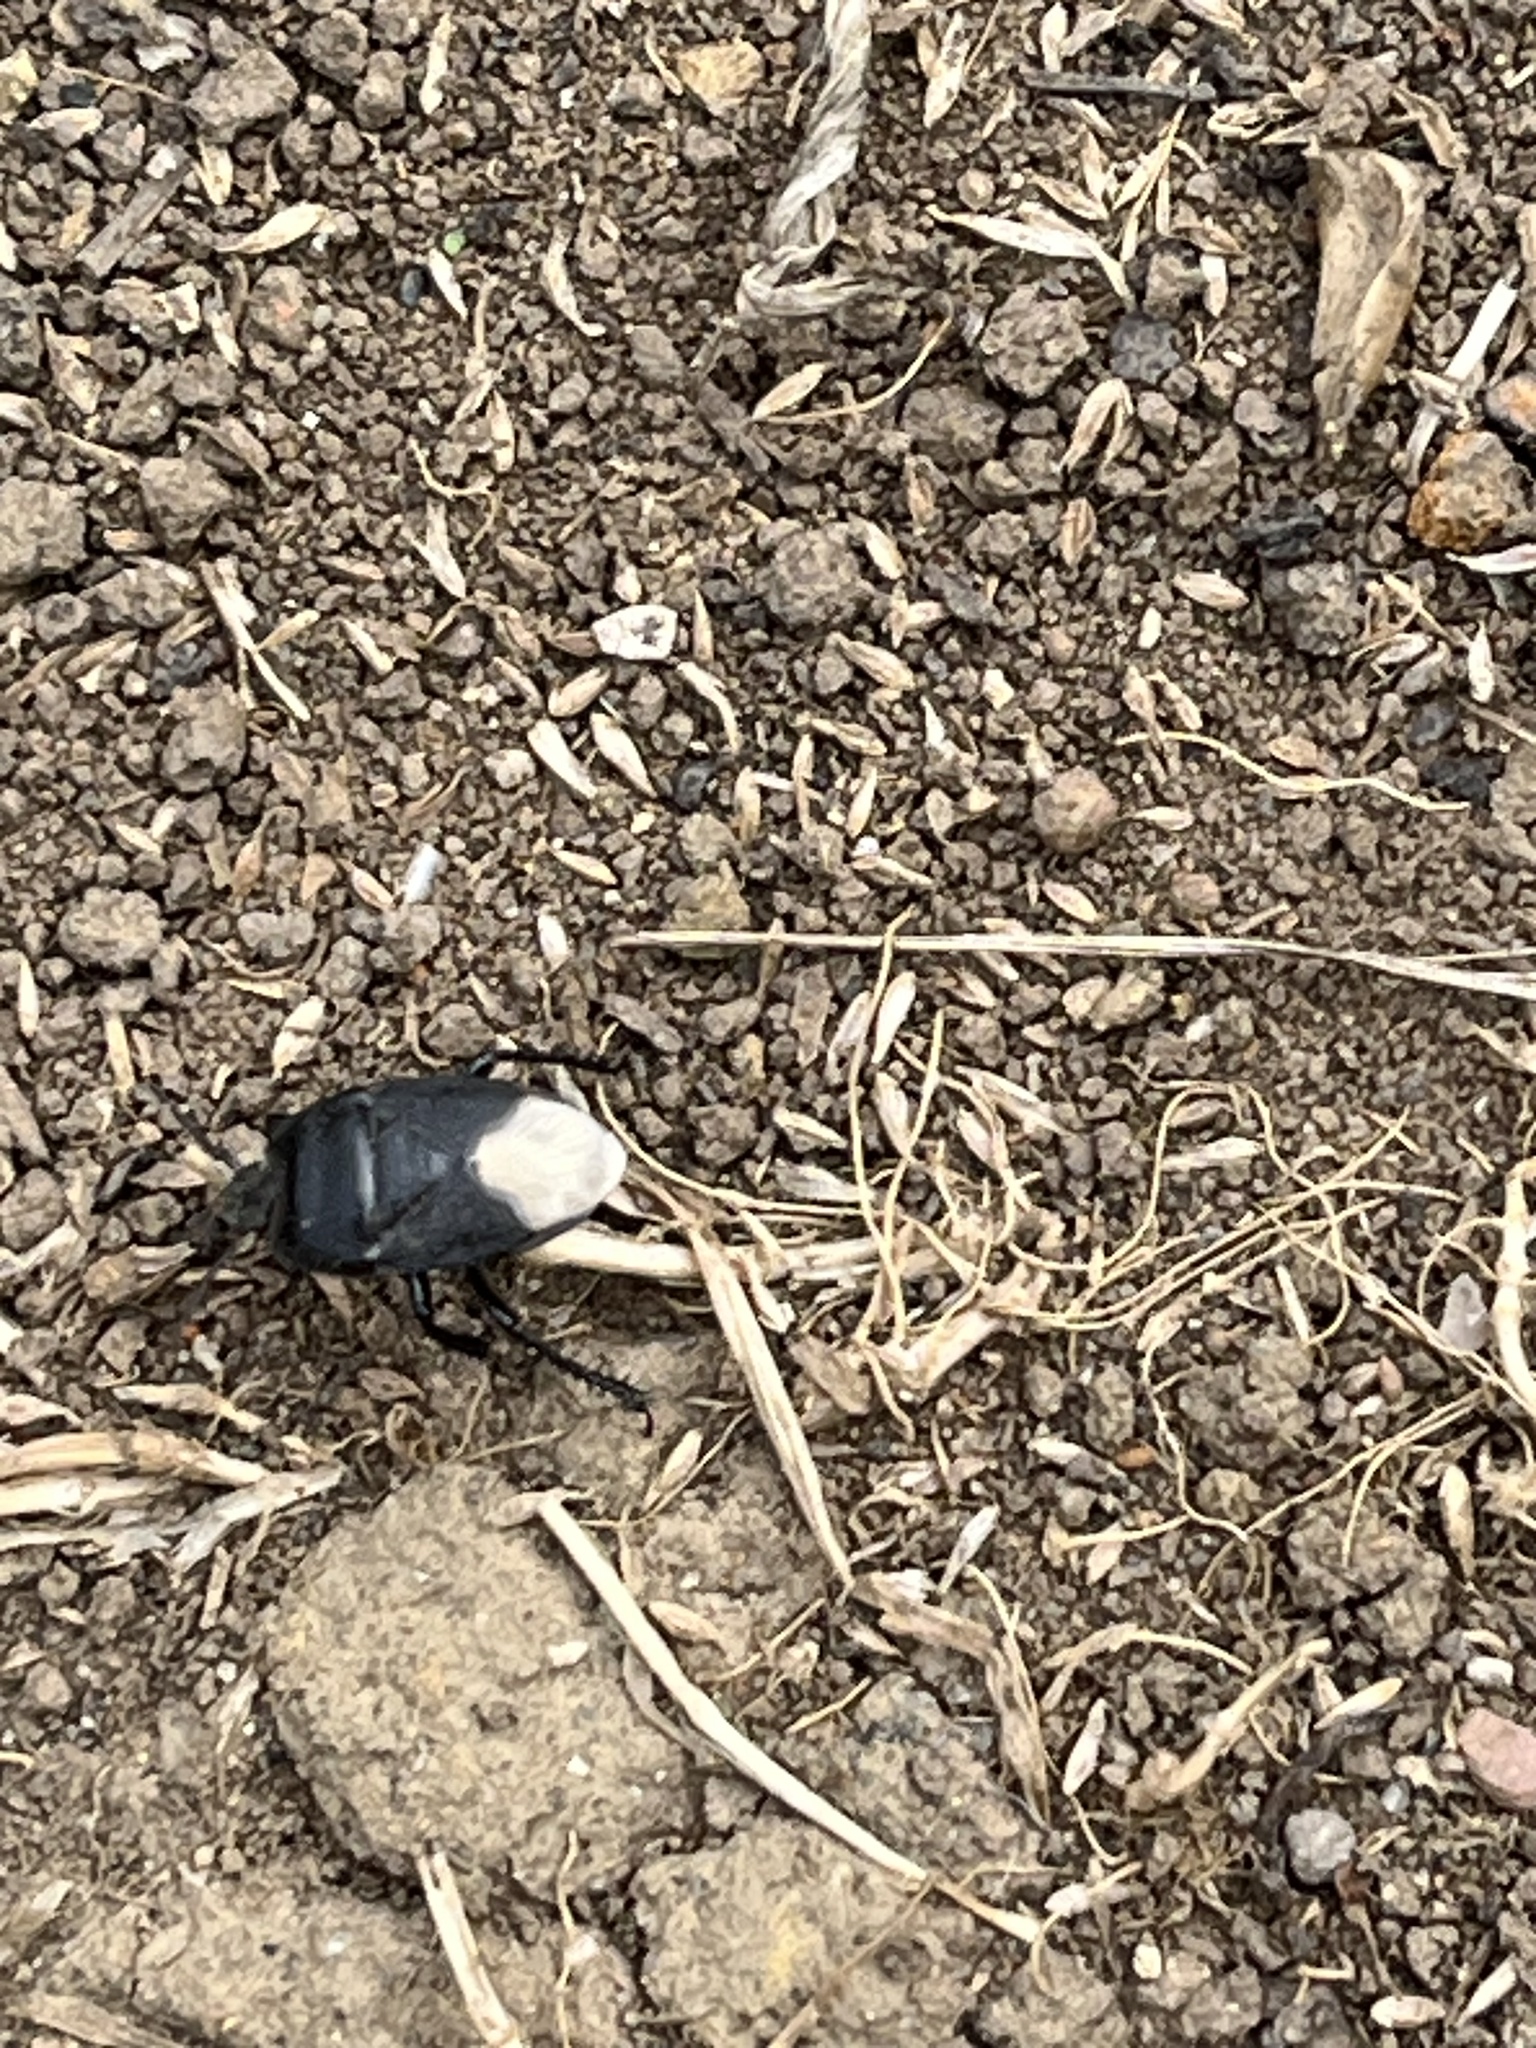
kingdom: Animalia
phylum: Arthropoda
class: Insecta
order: Hemiptera
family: Cydnidae
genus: Cydnus
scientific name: Cydnus aterrimus
